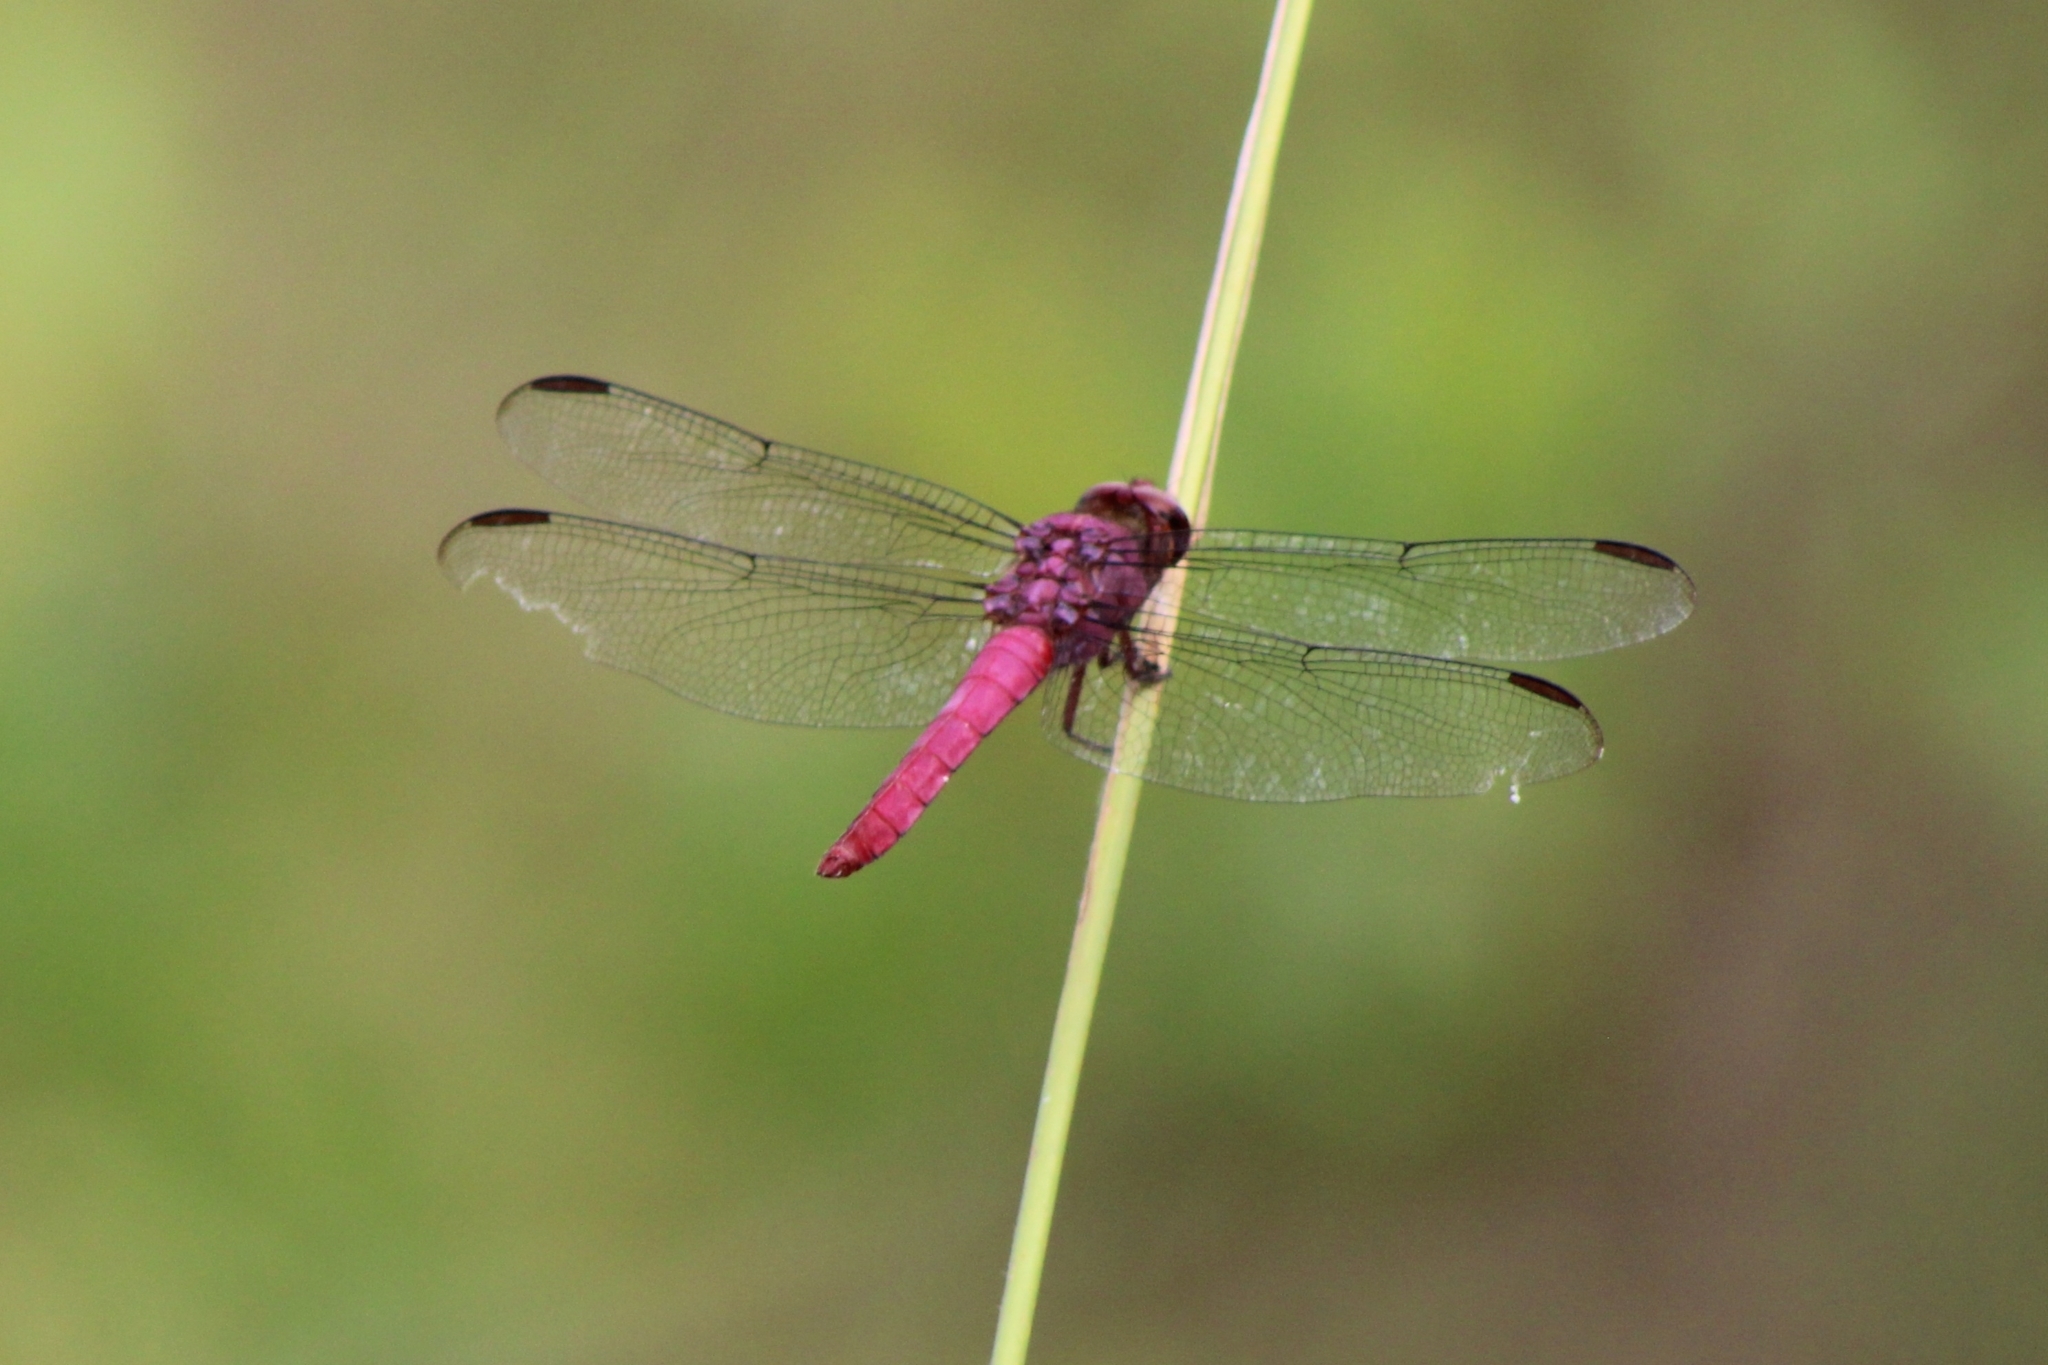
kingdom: Animalia
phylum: Arthropoda
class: Insecta
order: Odonata
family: Libellulidae
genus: Orthemis
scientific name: Orthemis discolor
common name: Carmine skimmer
